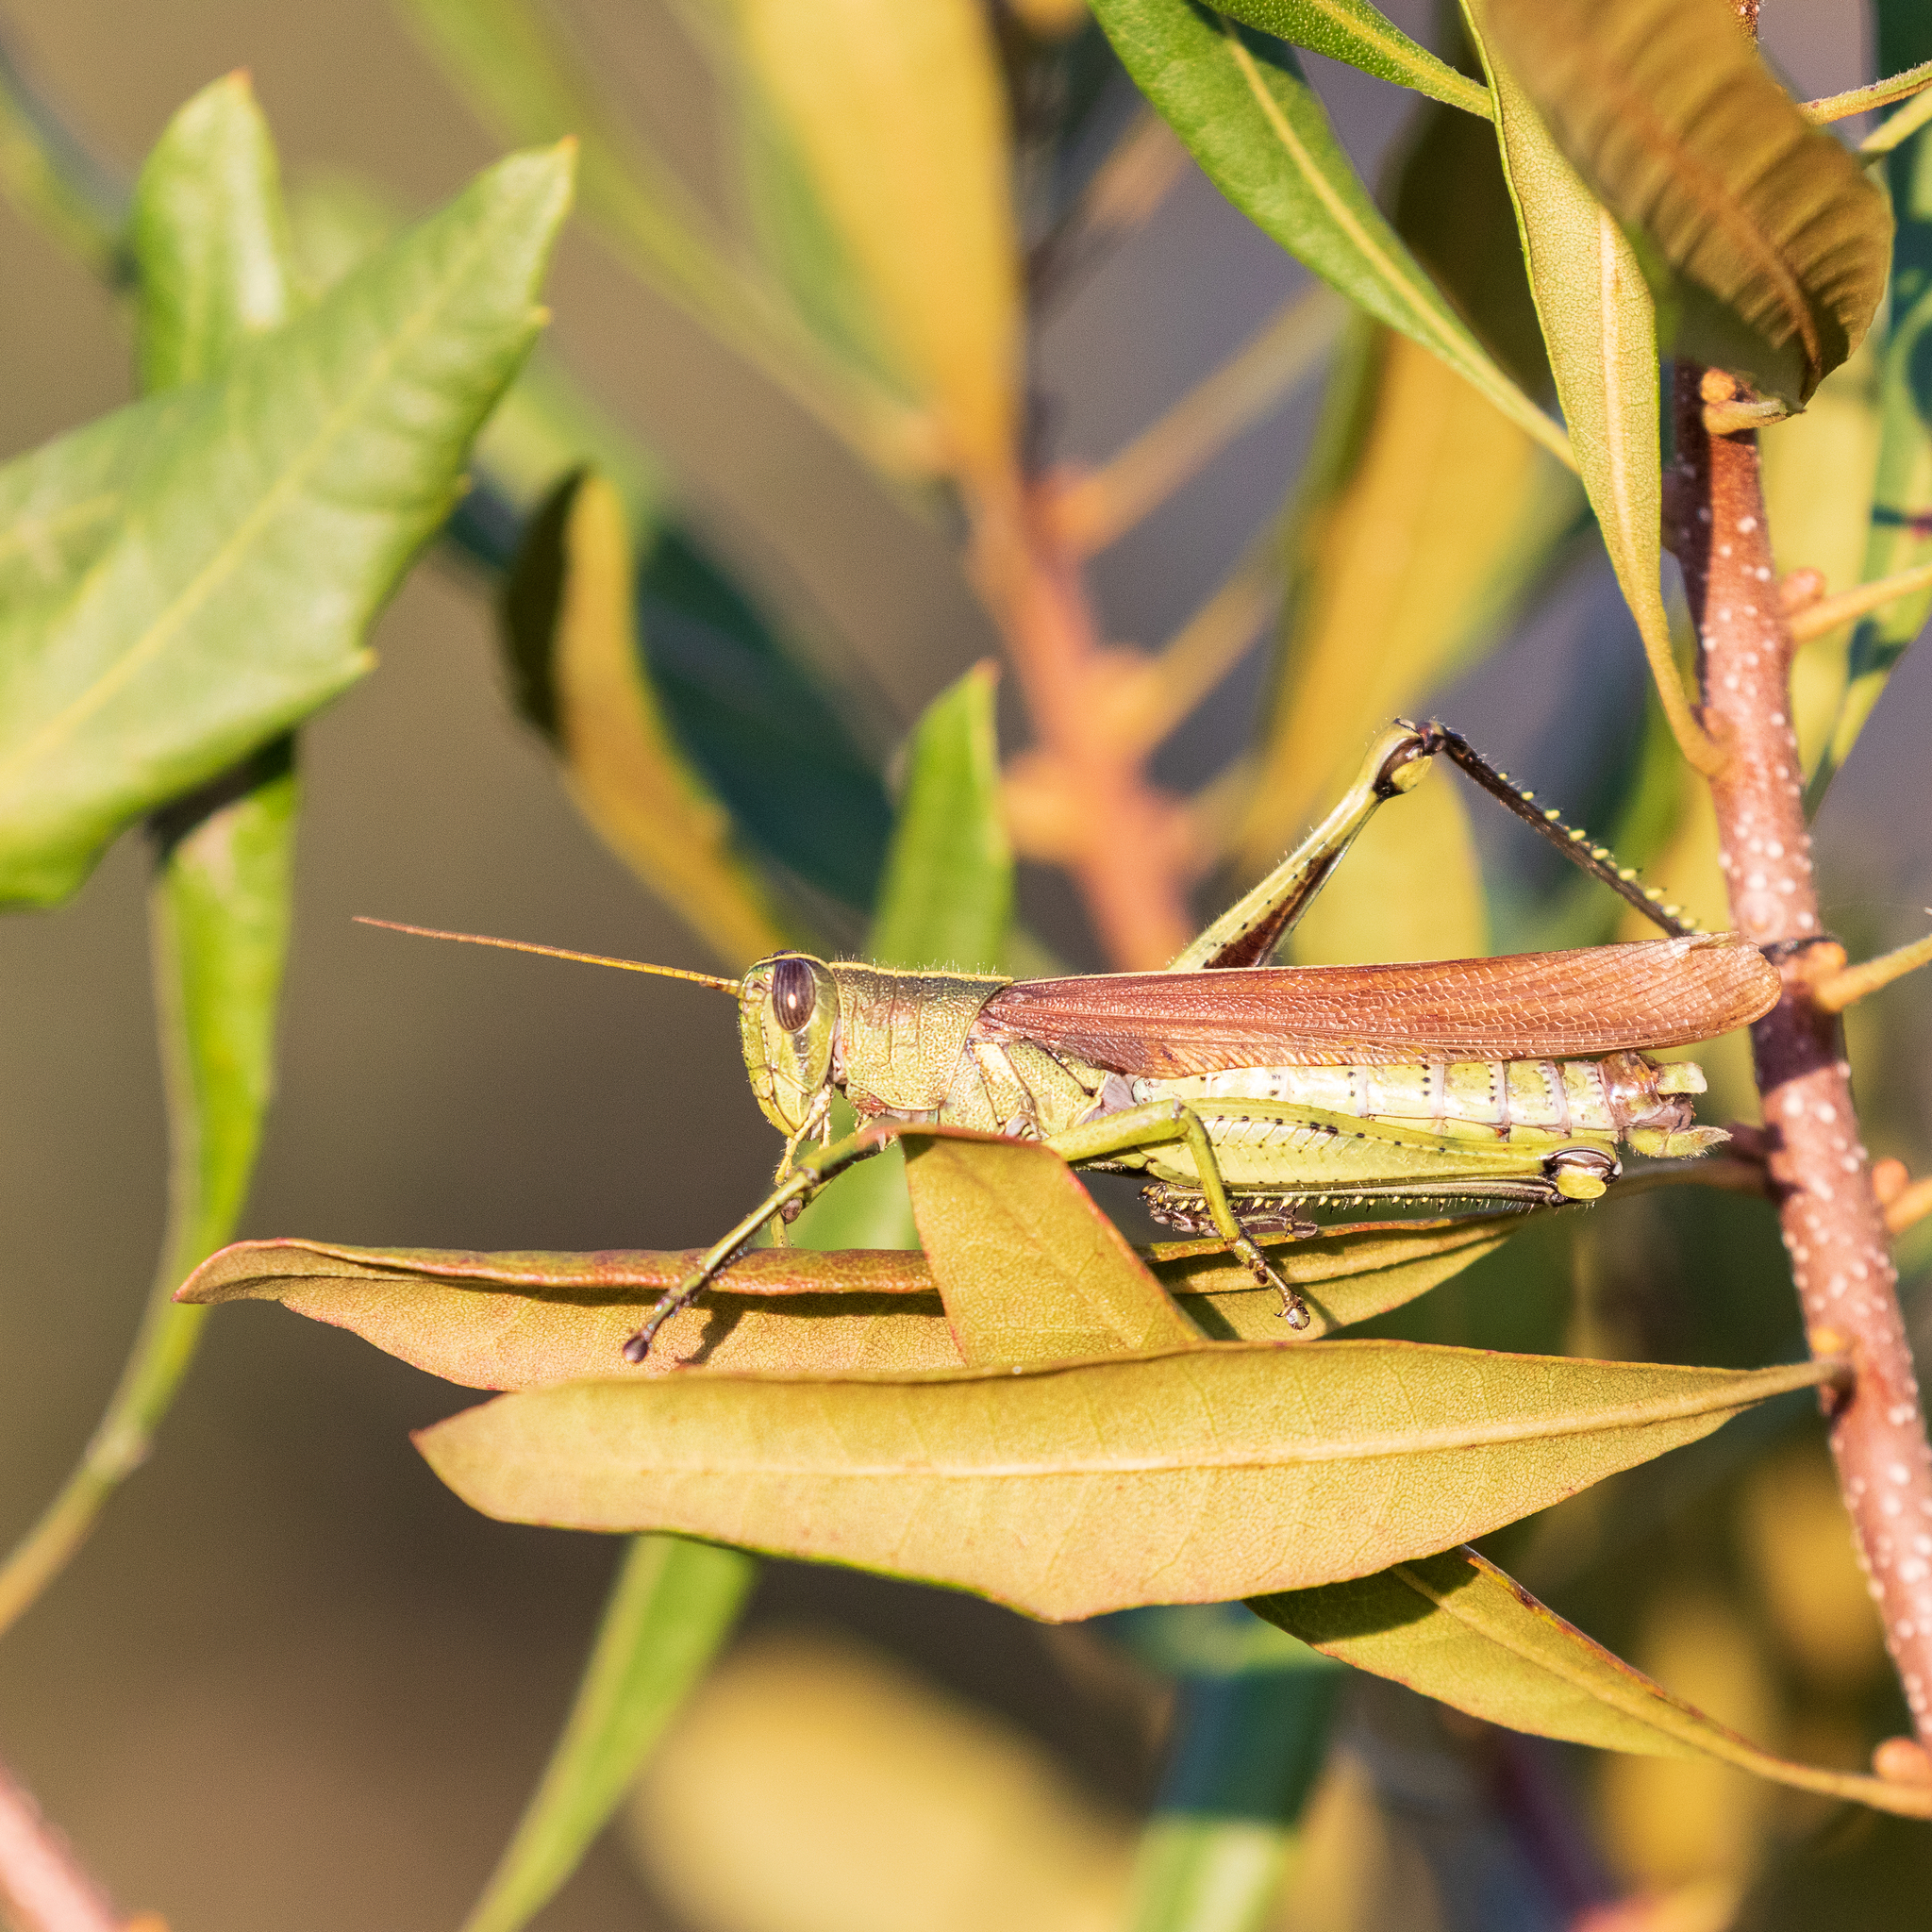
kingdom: Animalia
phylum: Arthropoda
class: Insecta
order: Orthoptera
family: Acrididae
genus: Schistocerca
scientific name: Schistocerca obscura
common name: Obscure bird grasshopper
